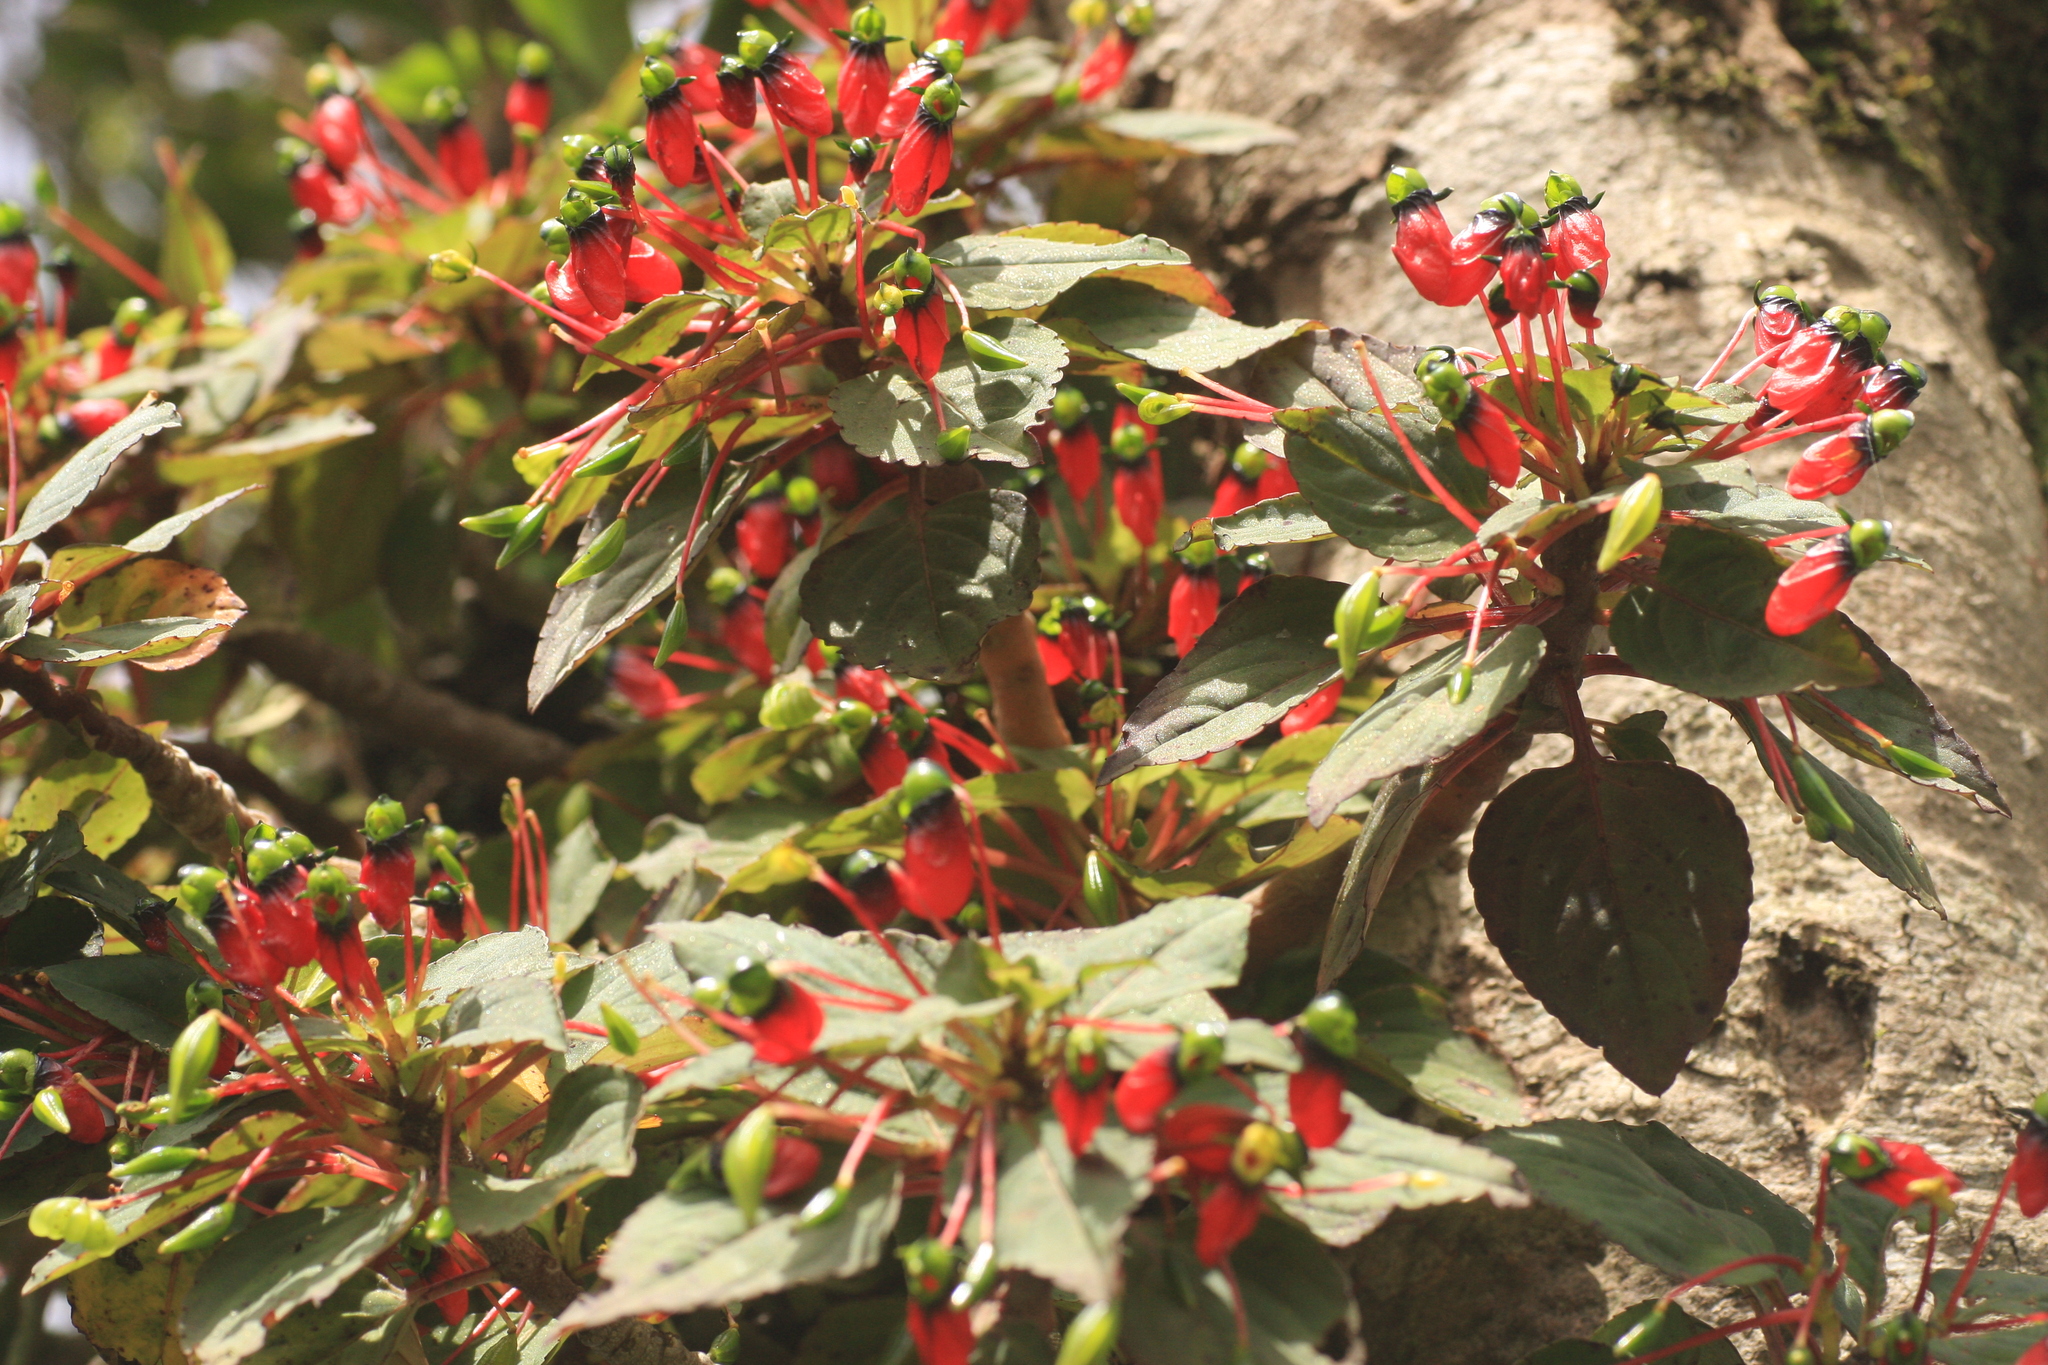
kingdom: Plantae
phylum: Tracheophyta
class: Magnoliopsida
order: Ericales
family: Balsaminaceae
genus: Impatiens
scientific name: Impatiens parasitica
